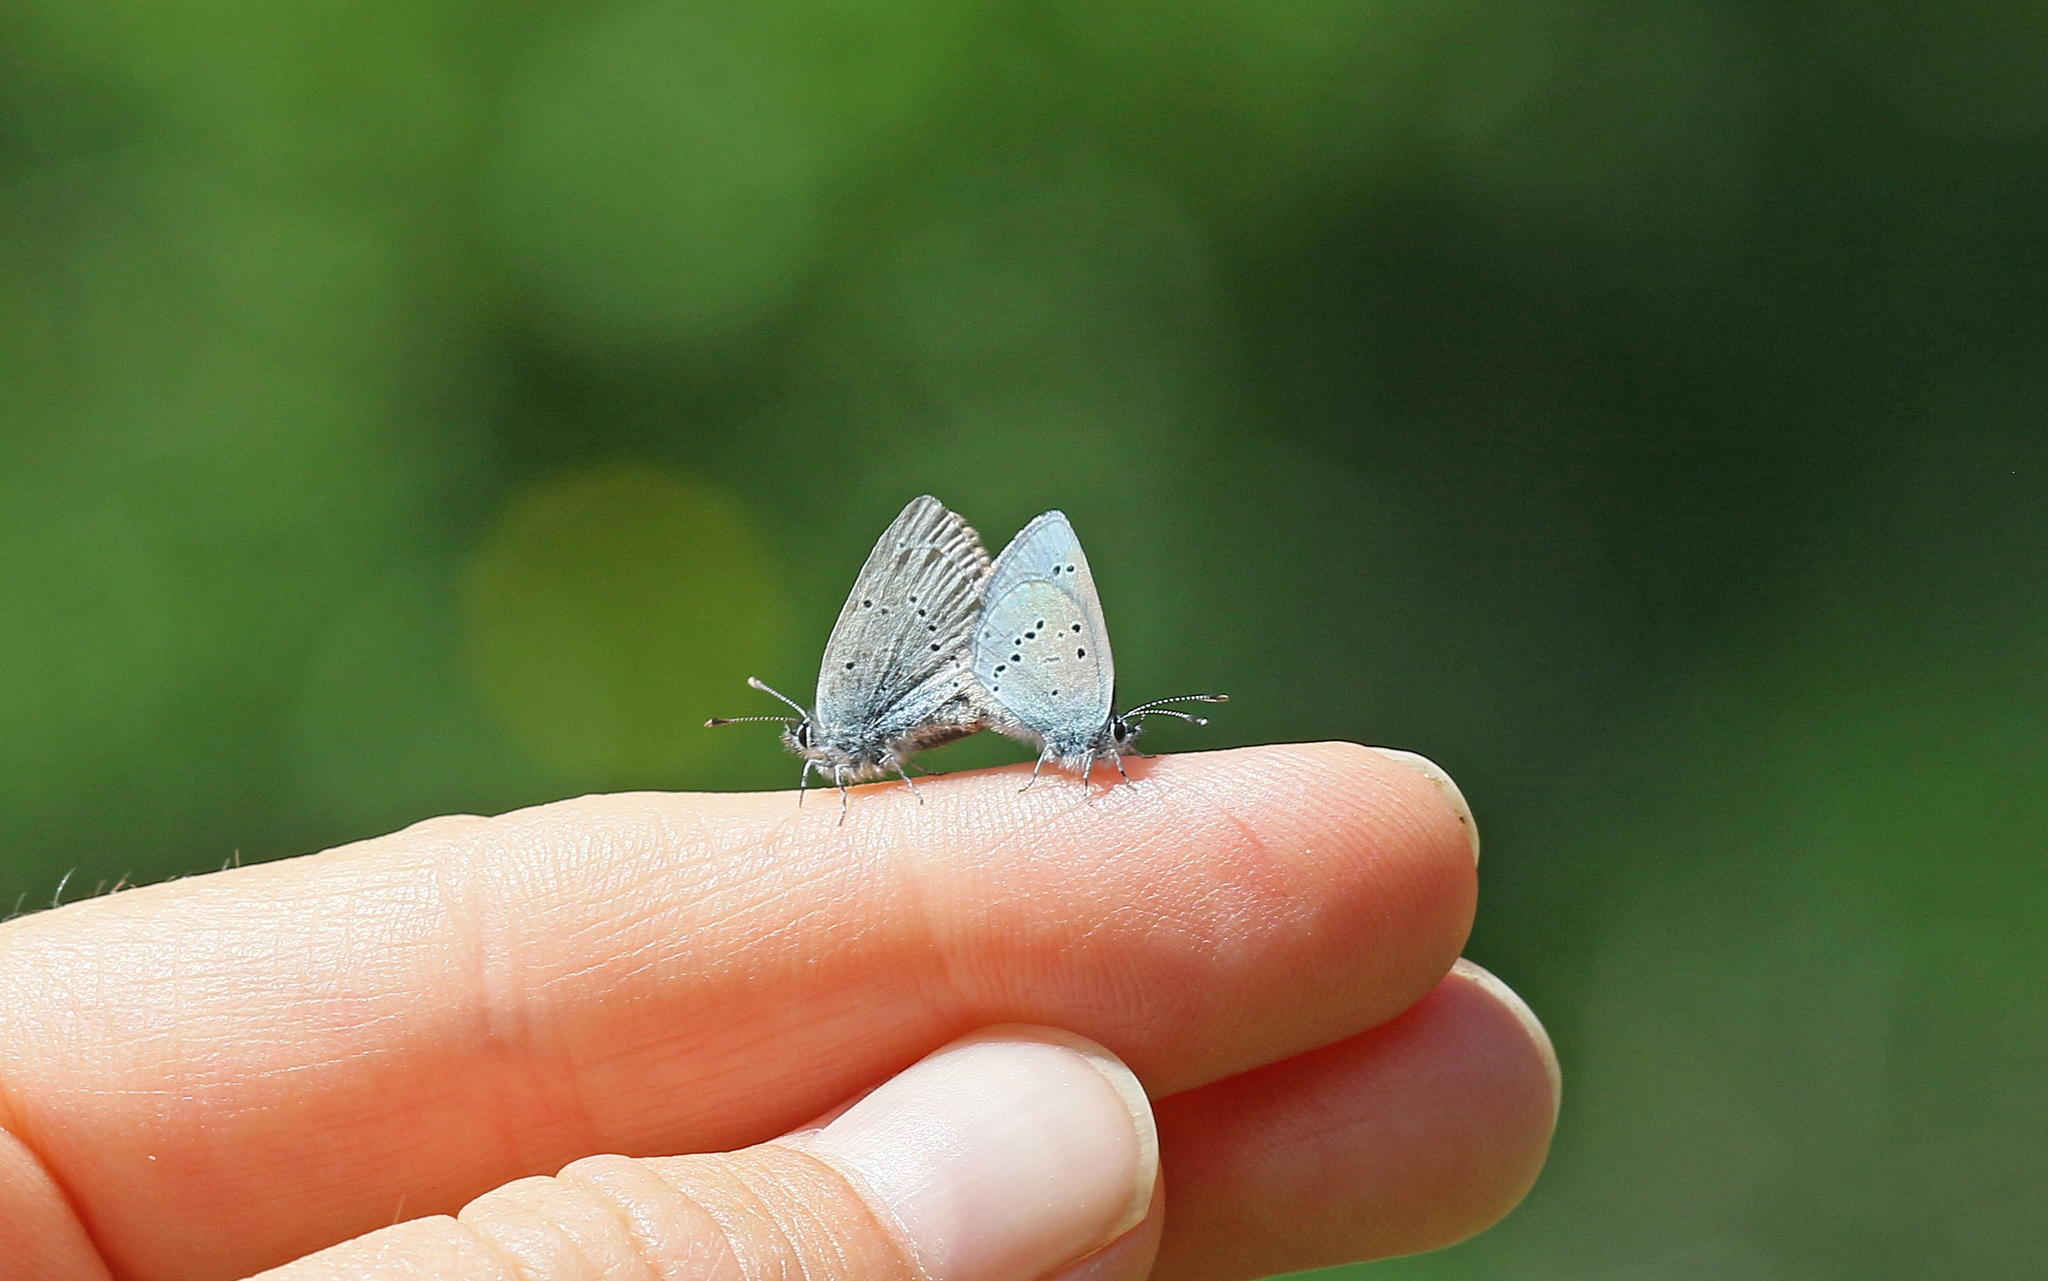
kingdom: Animalia
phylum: Arthropoda
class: Insecta
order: Lepidoptera
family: Lycaenidae
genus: Cupido
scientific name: Cupido minimus
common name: Small blue
